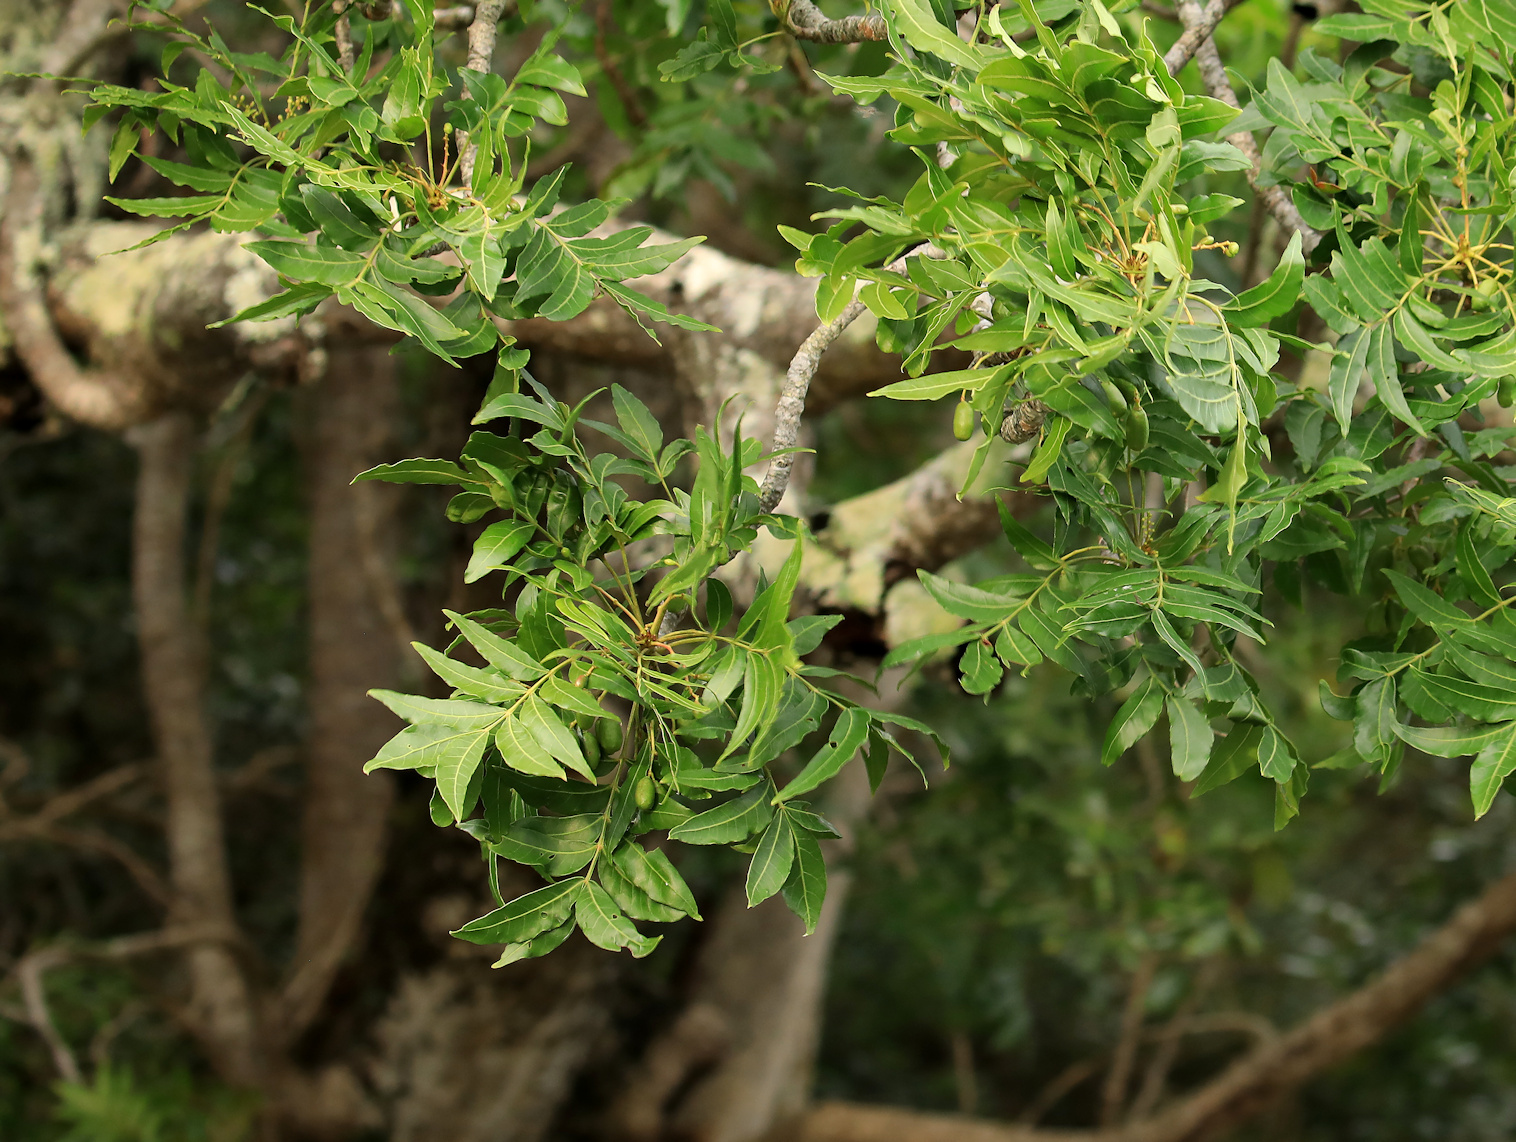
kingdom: Plantae
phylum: Tracheophyta
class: Magnoliopsida
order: Sapindales
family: Anacardiaceae
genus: Harpephyllum
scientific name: Harpephyllum caffrum
